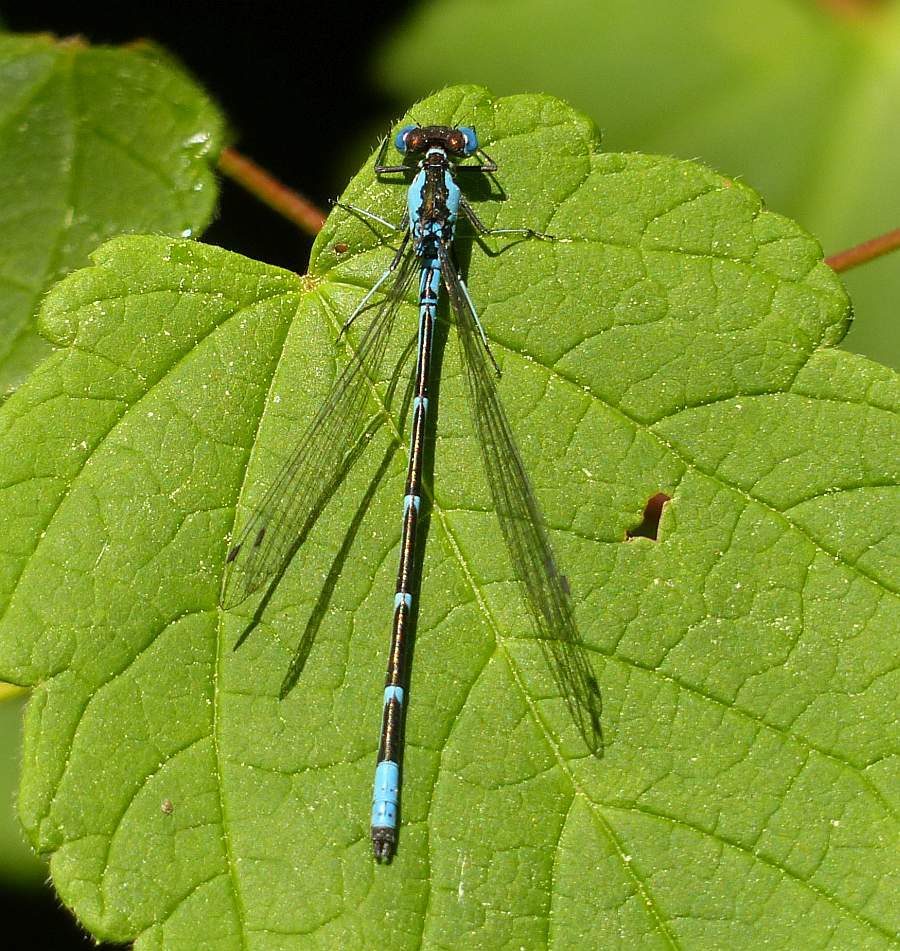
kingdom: Animalia
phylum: Arthropoda
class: Insecta
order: Odonata
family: Coenagrionidae
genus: Chromagrion
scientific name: Chromagrion conditum
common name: Aurora damsel
